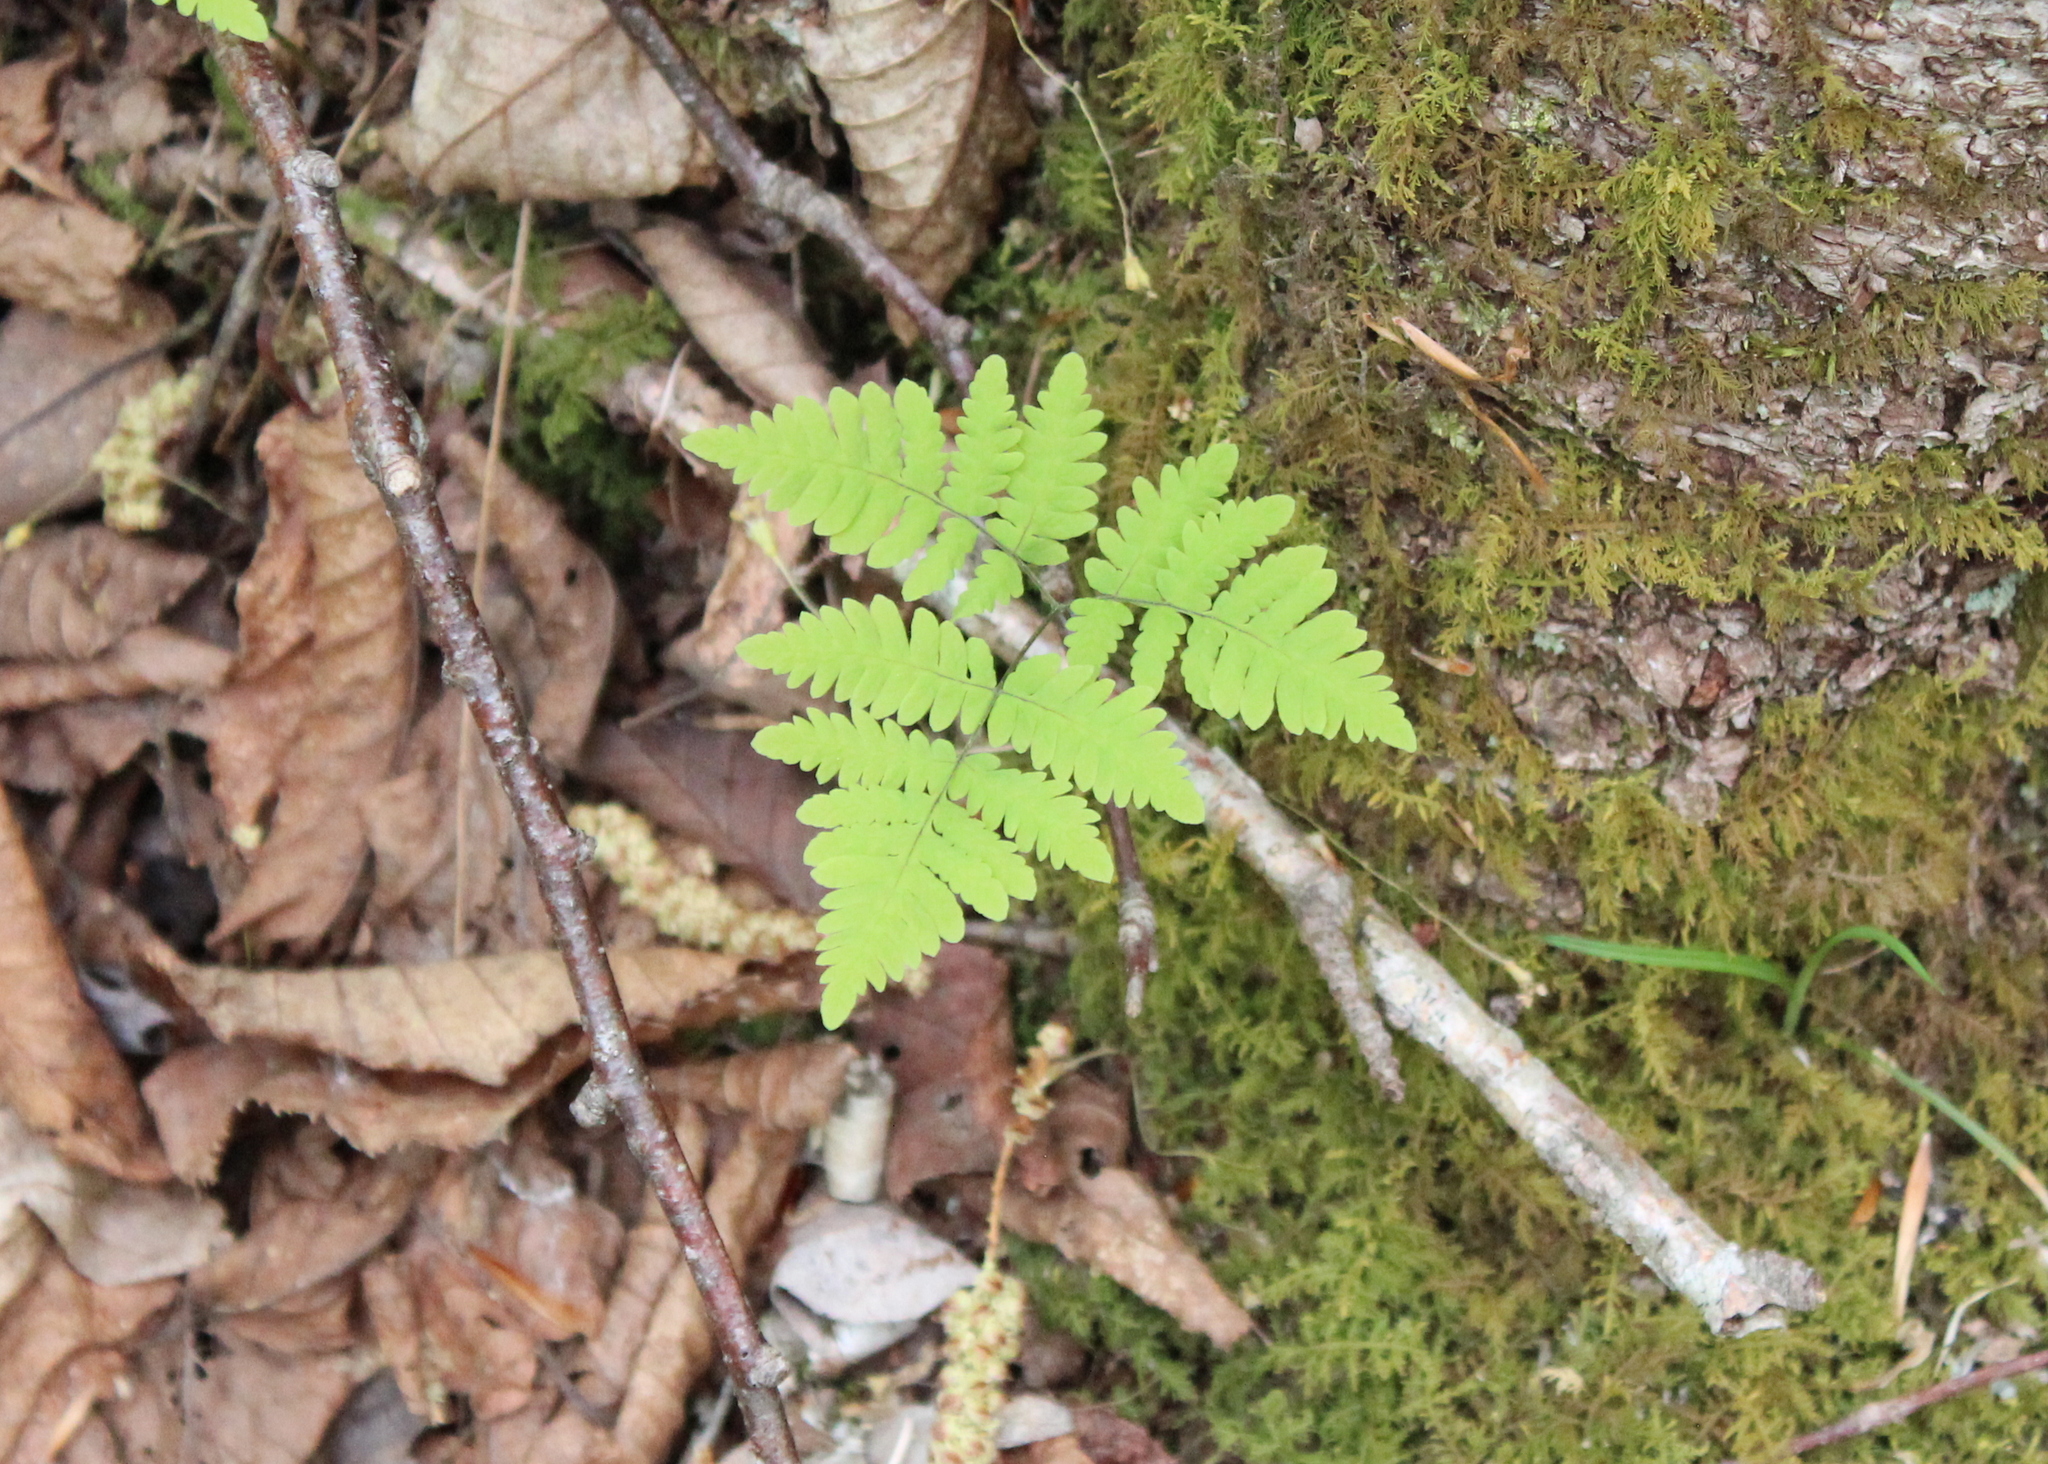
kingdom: Plantae
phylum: Tracheophyta
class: Polypodiopsida
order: Polypodiales
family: Cystopteridaceae
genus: Gymnocarpium
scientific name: Gymnocarpium dryopteris
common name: Oak fern
